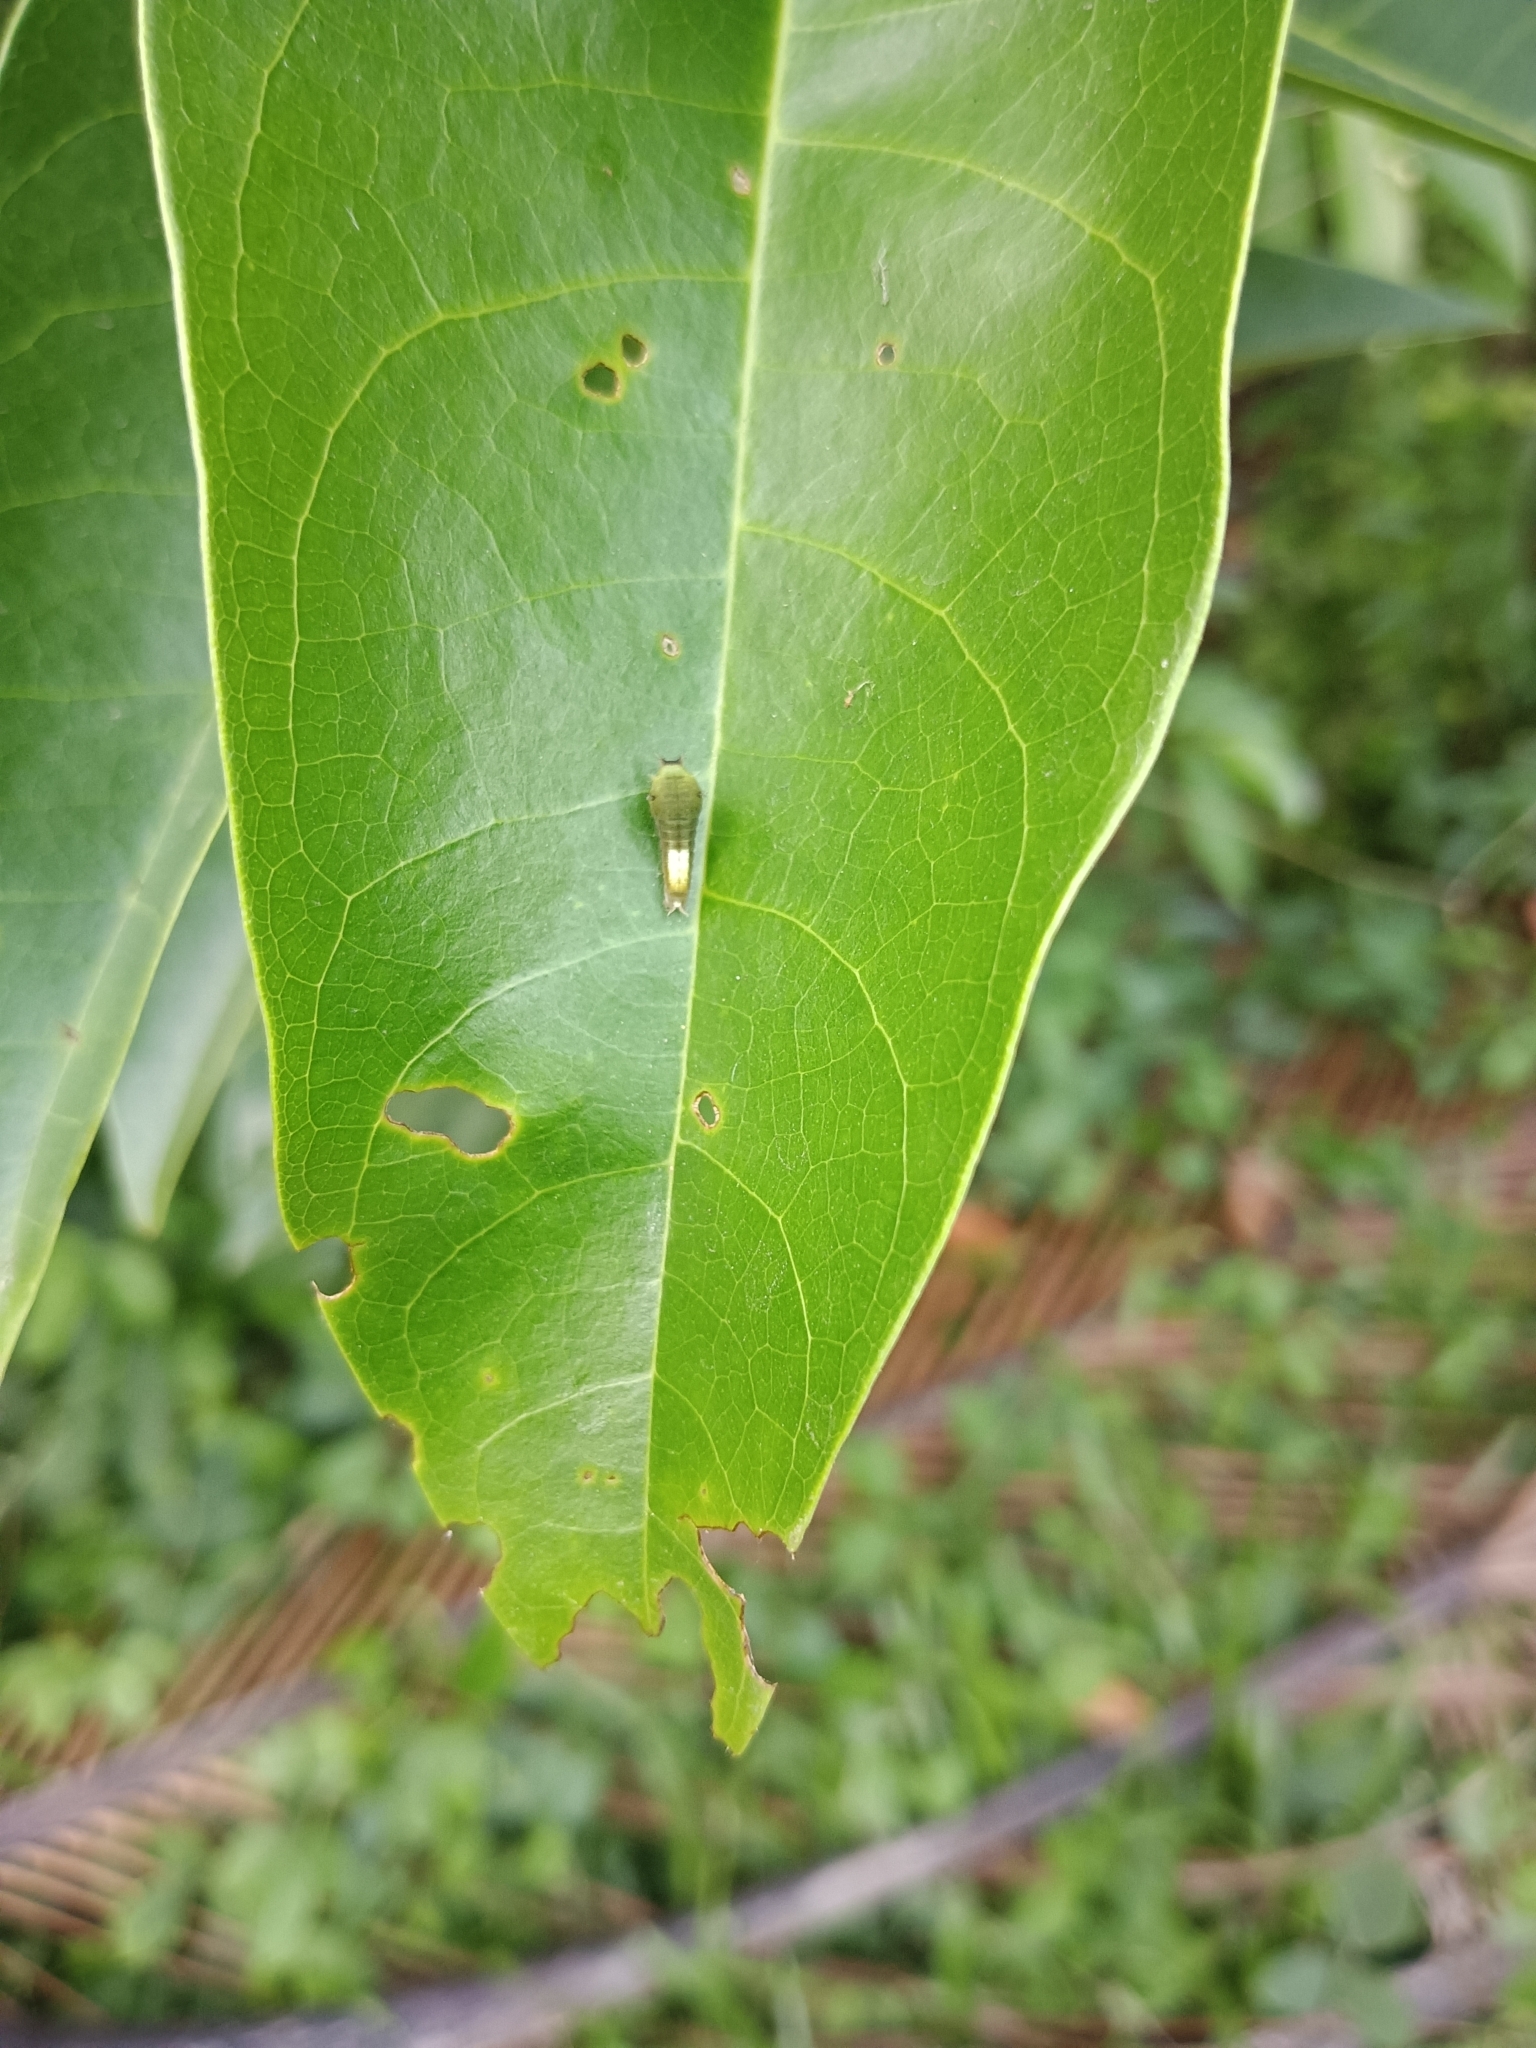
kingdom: Animalia
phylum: Arthropoda
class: Insecta
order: Lepidoptera
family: Papilionidae
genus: Graphium
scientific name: Graphium agamemnon
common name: Tailed jay
